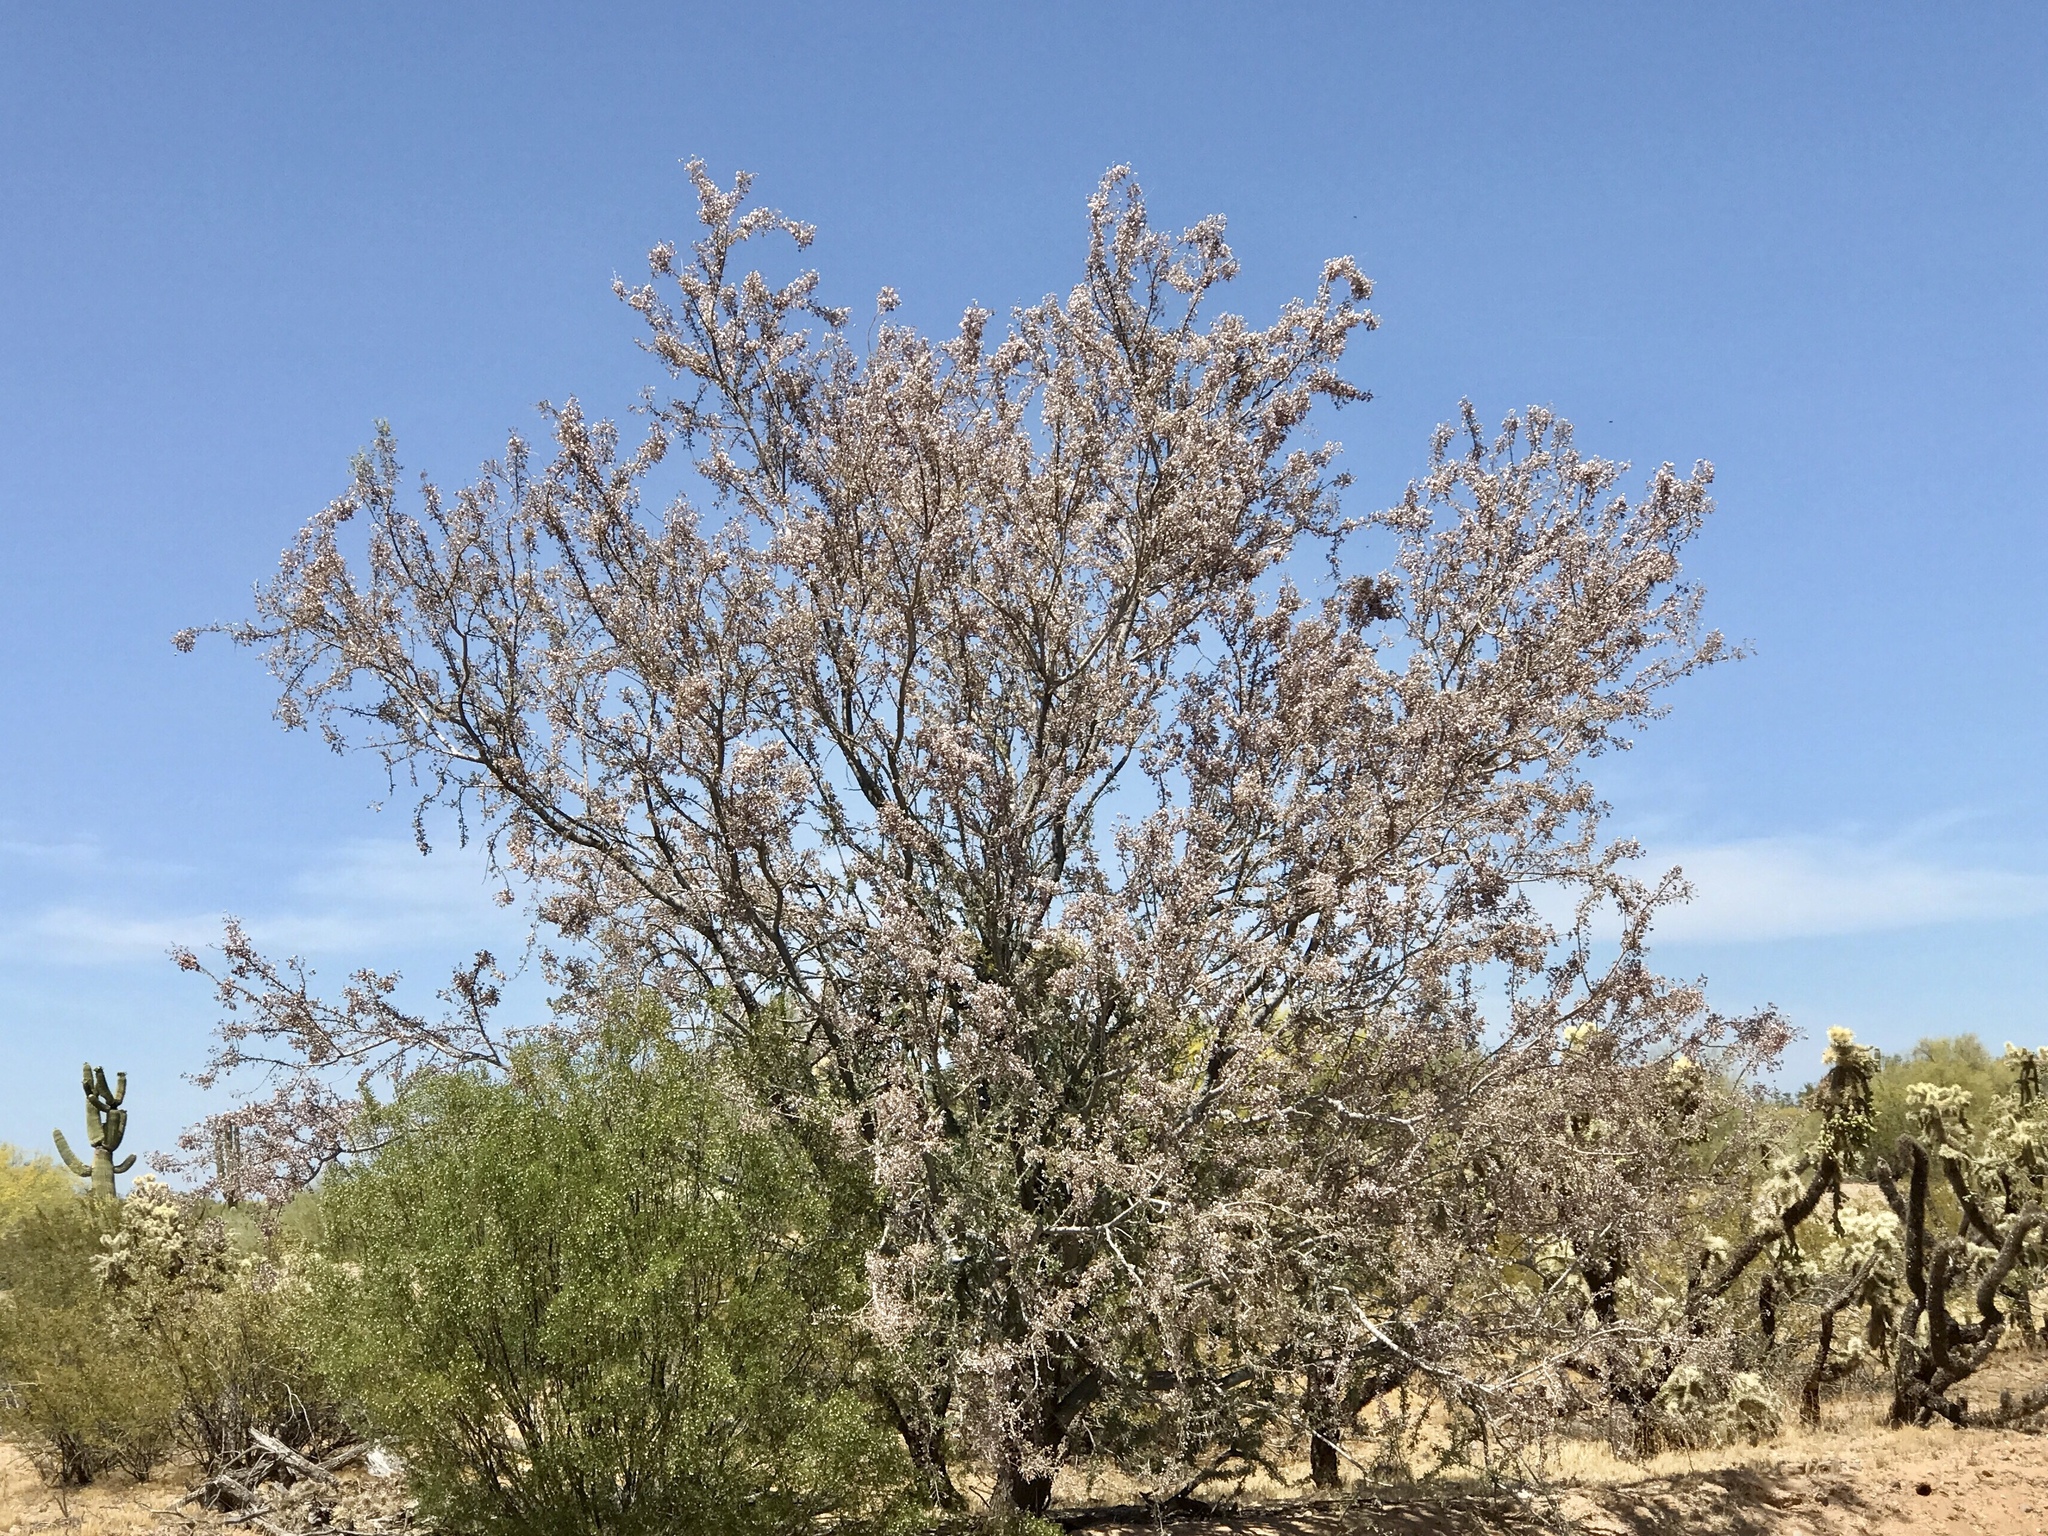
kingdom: Plantae
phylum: Tracheophyta
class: Magnoliopsida
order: Fabales
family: Fabaceae
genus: Olneya
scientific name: Olneya tesota
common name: Desert ironwood
